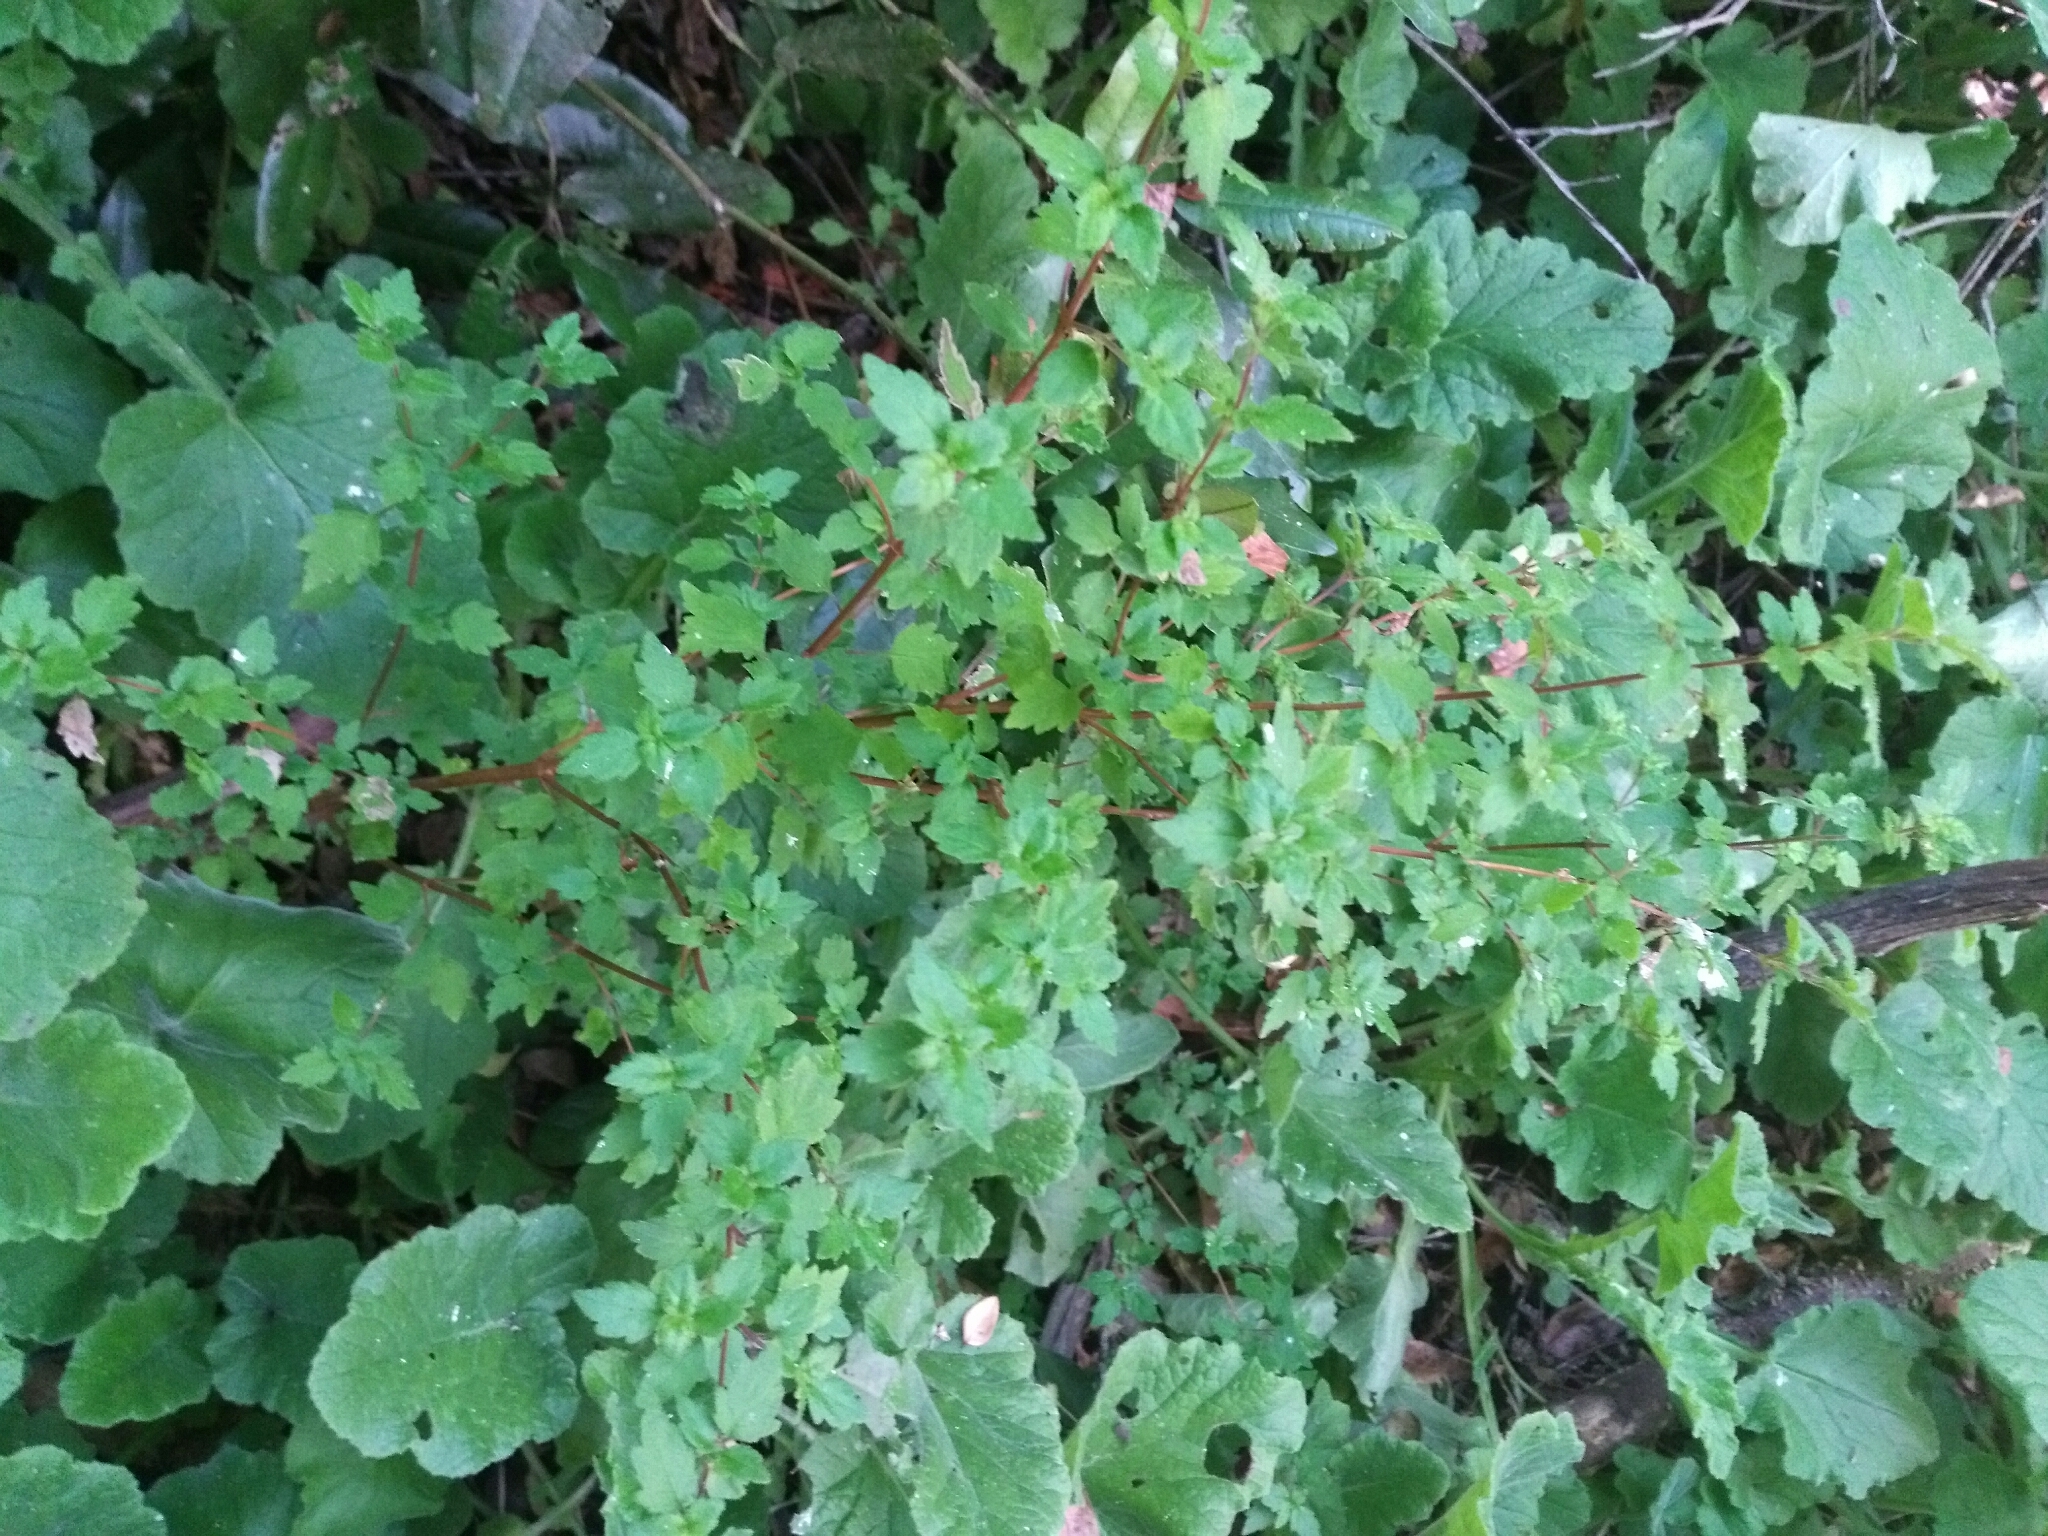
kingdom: Plantae
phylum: Tracheophyta
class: Magnoliopsida
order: Lamiales
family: Calceolariaceae
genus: Jovellana
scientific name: Jovellana violacea
